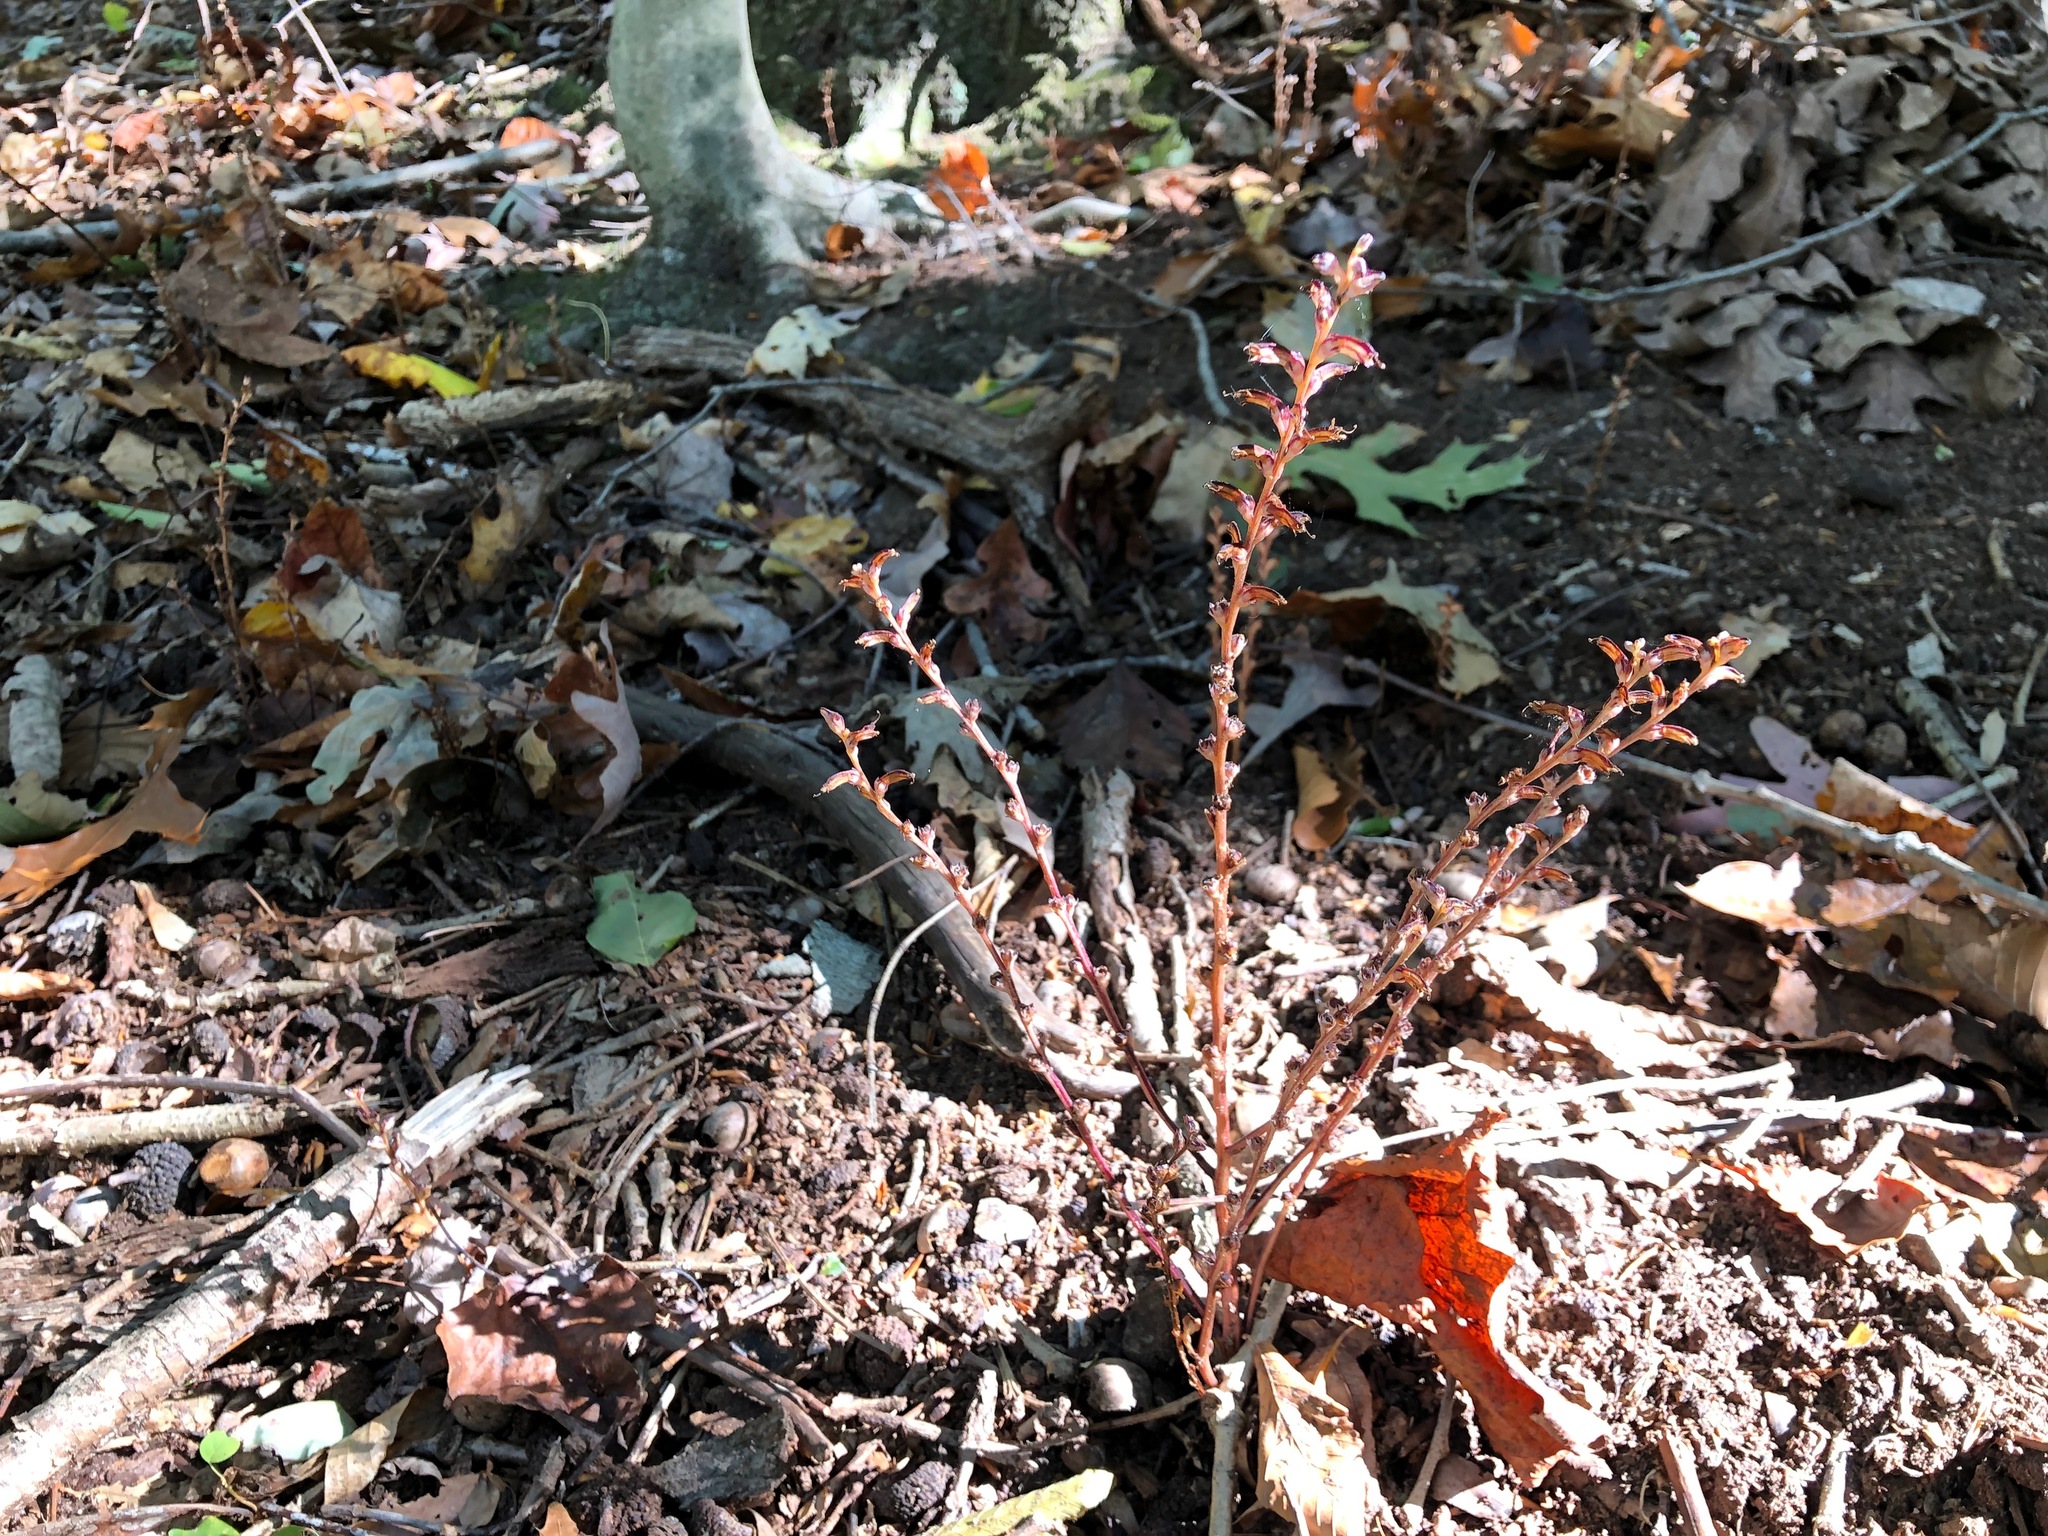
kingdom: Plantae
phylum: Tracheophyta
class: Magnoliopsida
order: Lamiales
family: Orobanchaceae
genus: Epifagus
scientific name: Epifagus virginiana
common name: Beechdrops
